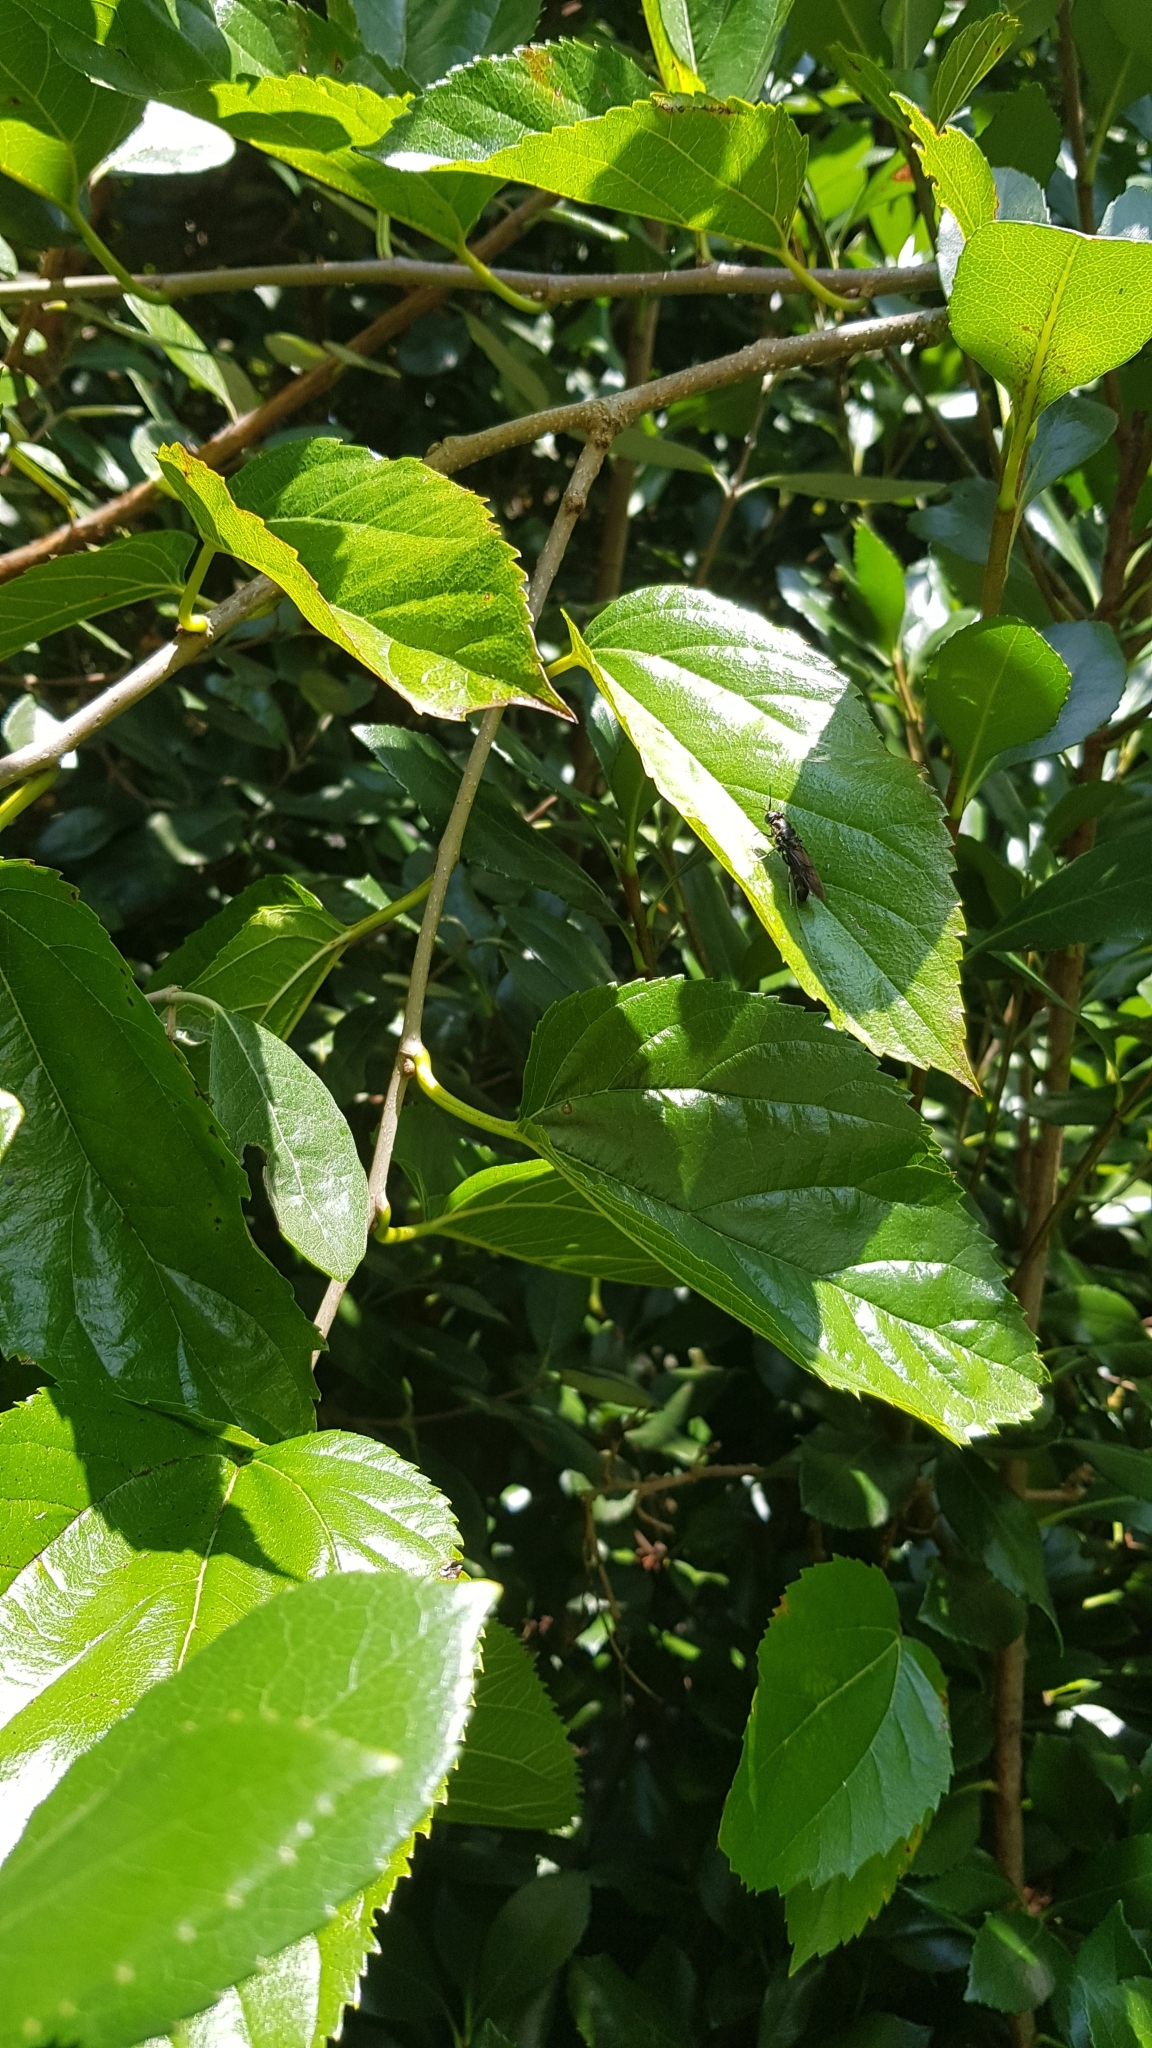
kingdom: Animalia
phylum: Arthropoda
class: Insecta
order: Diptera
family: Stratiomyidae
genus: Hermetia
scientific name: Hermetia illucens
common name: Black soldier fly
